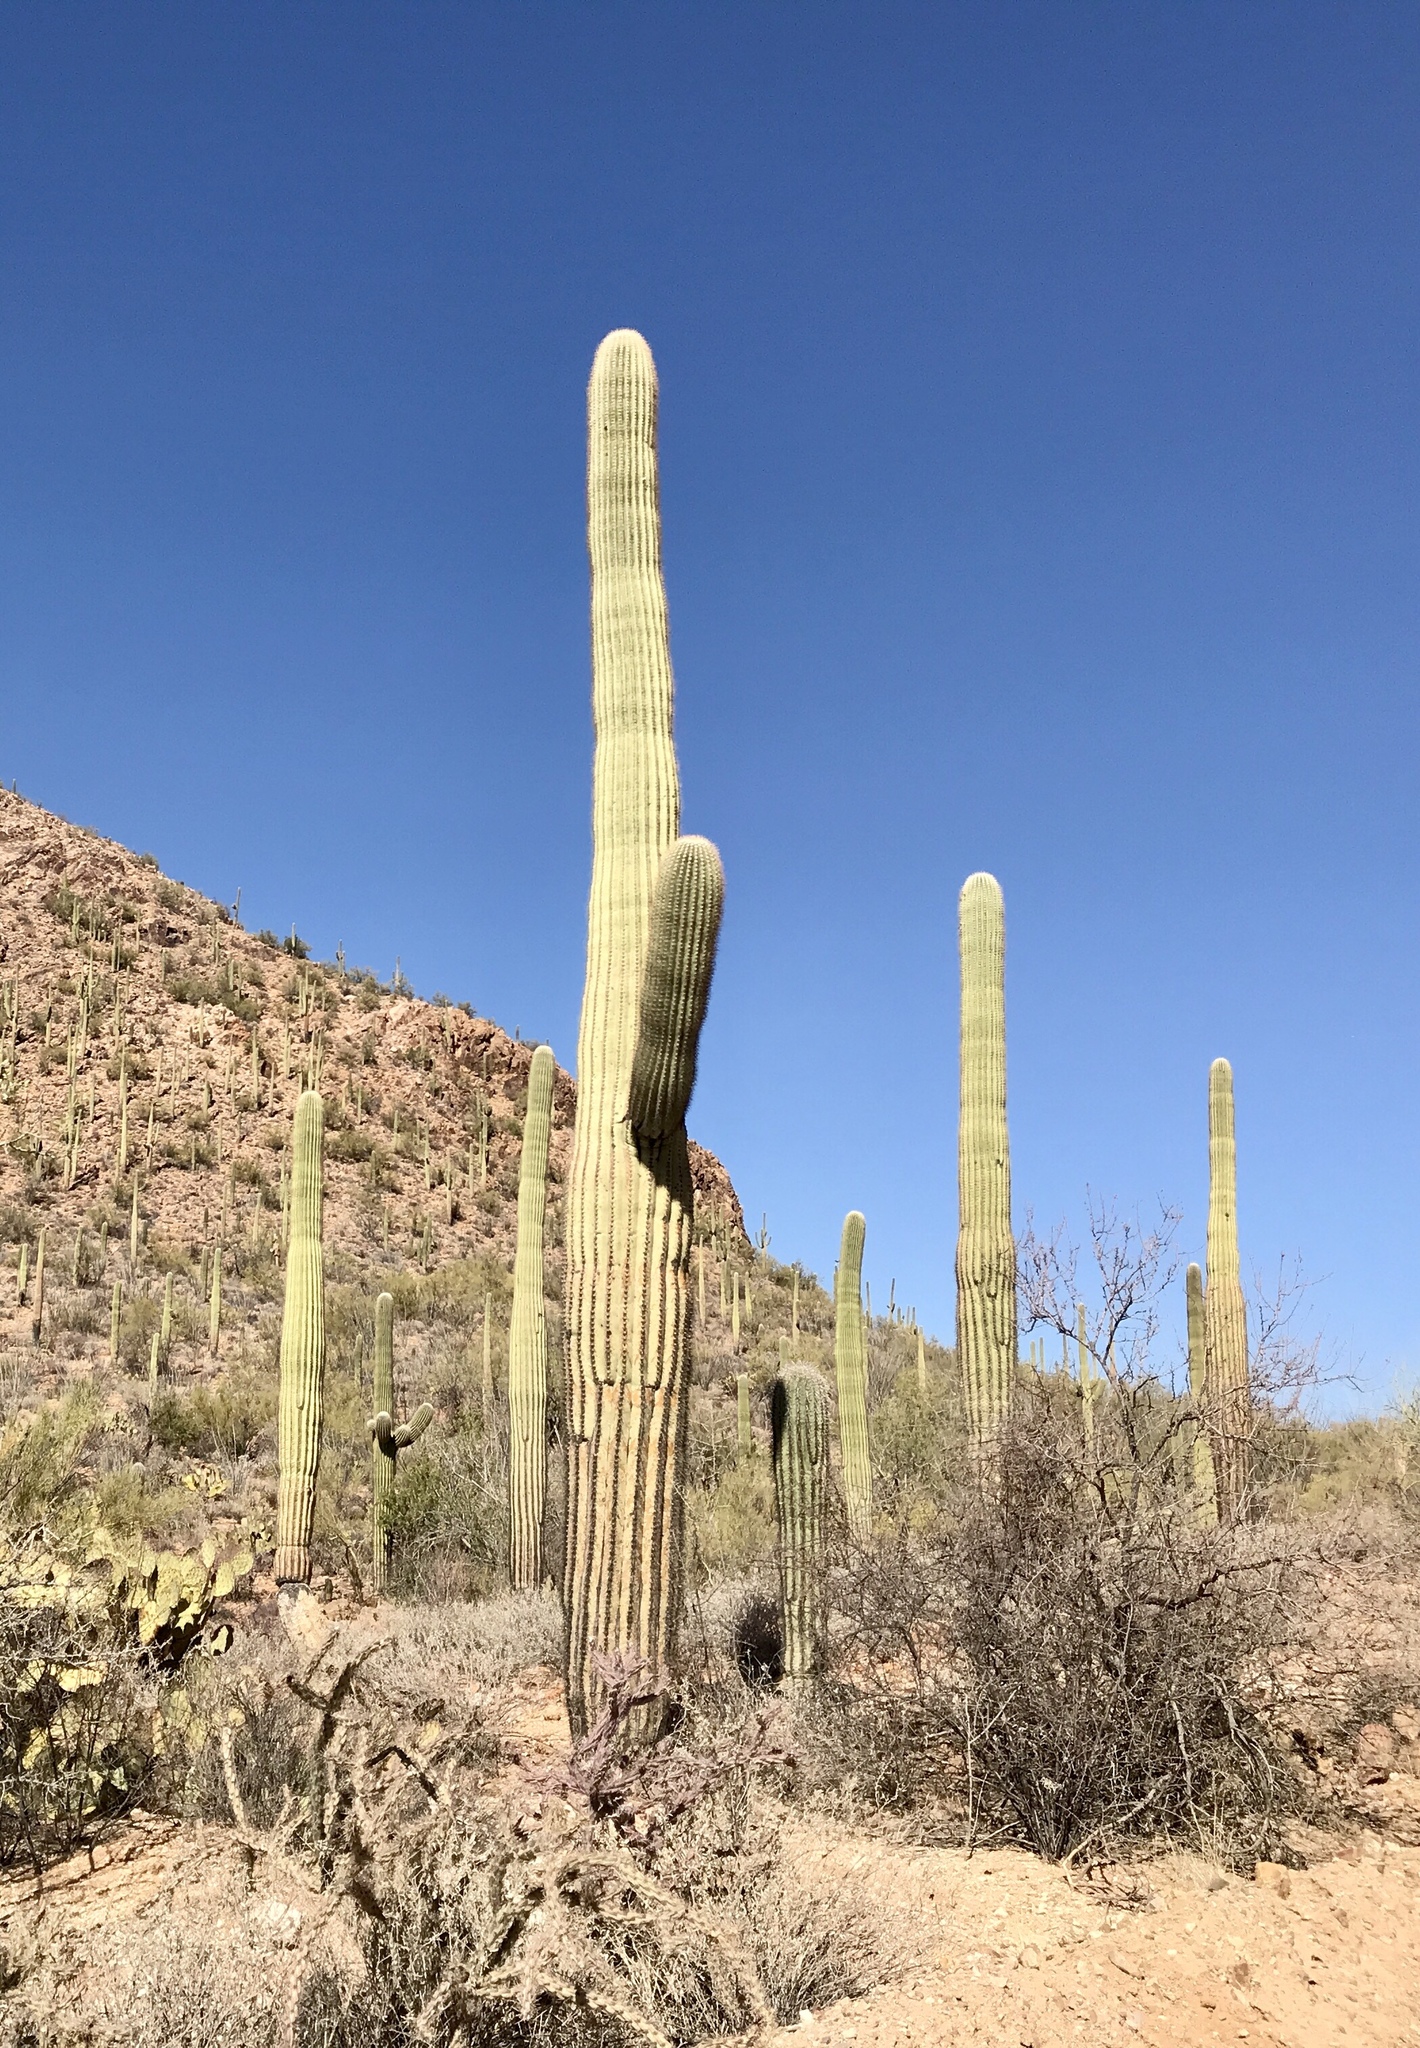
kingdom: Plantae
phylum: Tracheophyta
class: Magnoliopsida
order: Caryophyllales
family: Cactaceae
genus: Carnegiea
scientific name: Carnegiea gigantea
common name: Saguaro
